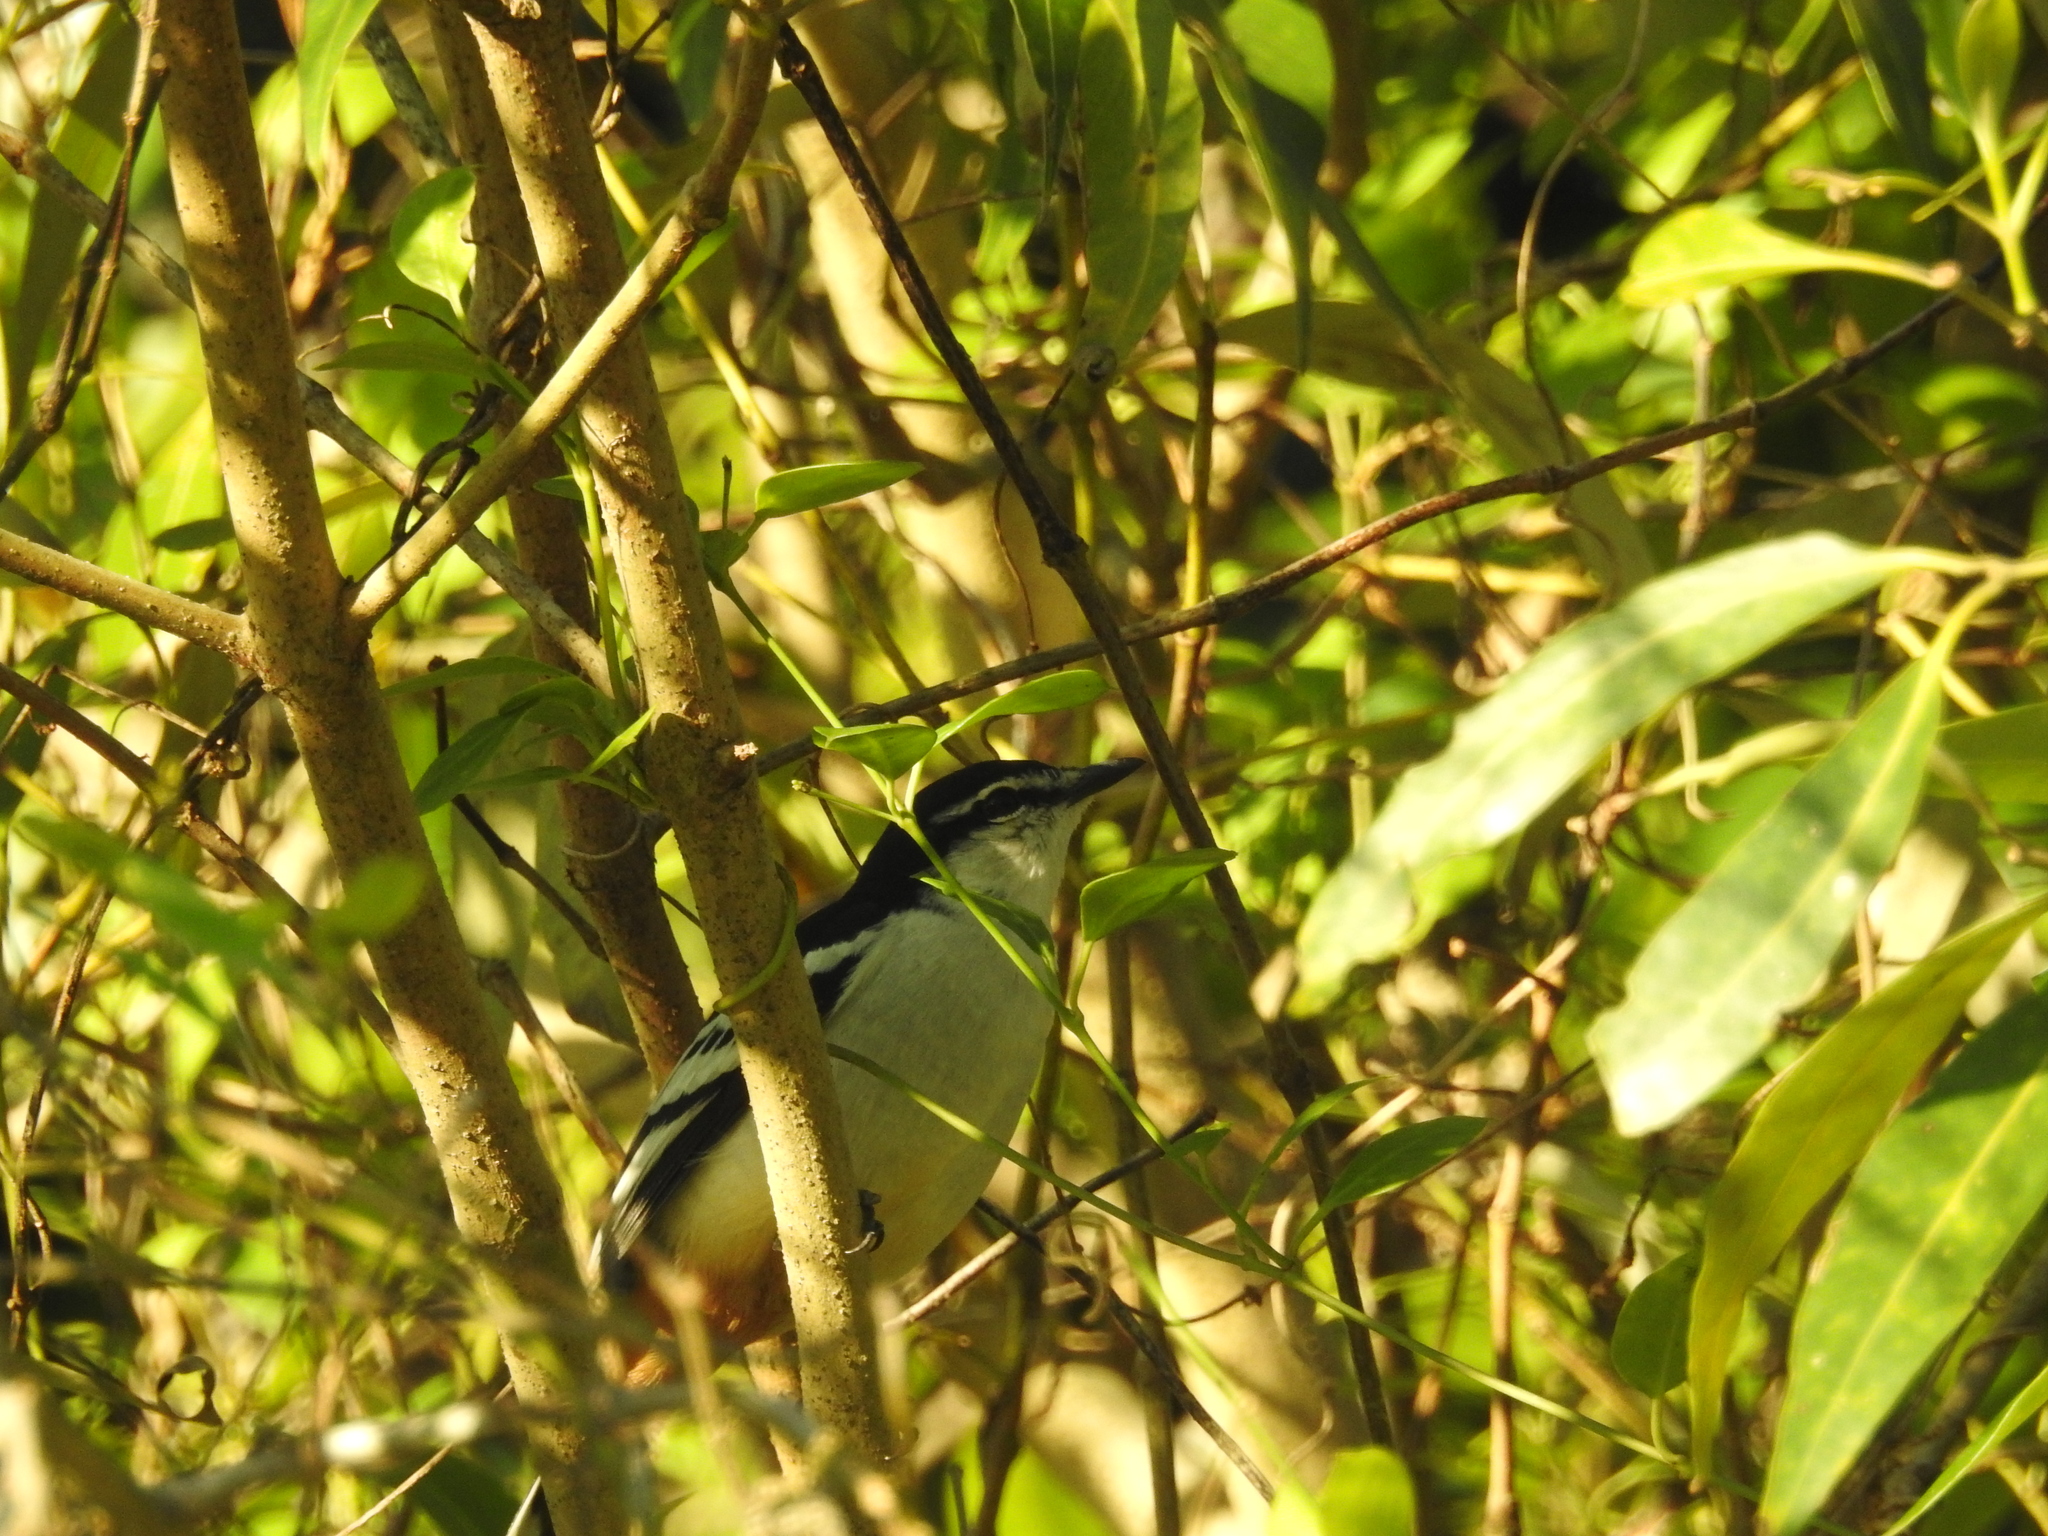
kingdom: Animalia
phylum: Chordata
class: Aves
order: Passeriformes
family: Campephagidae
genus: Lalage
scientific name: Lalage leucomela
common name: Varied triller
